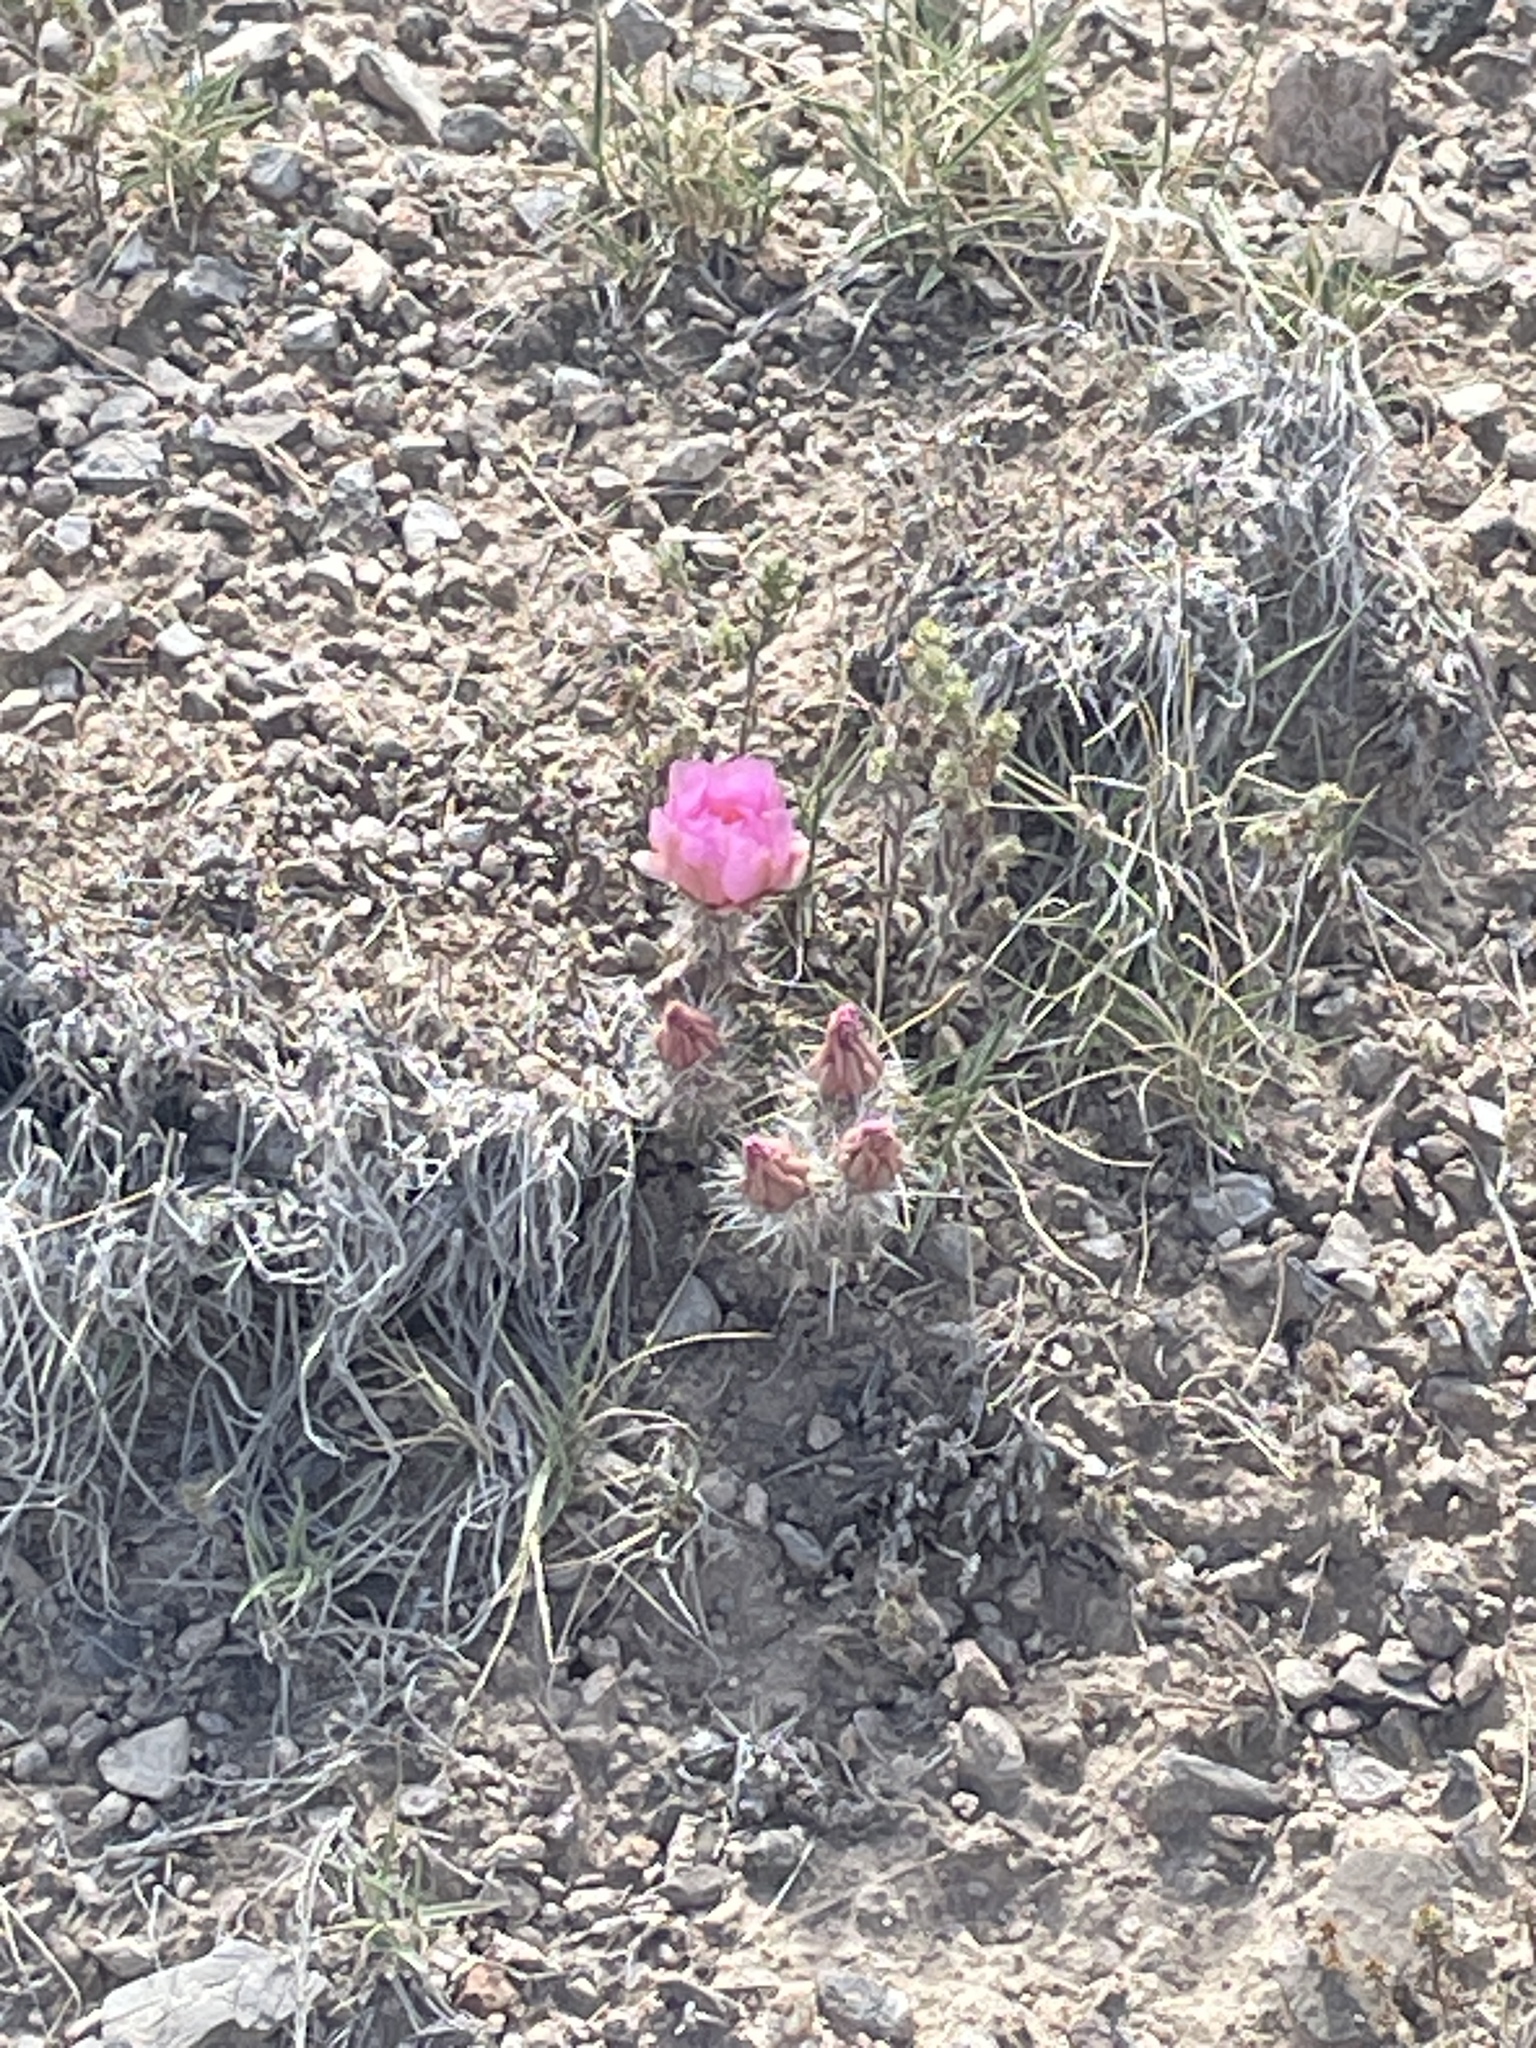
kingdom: Plantae
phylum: Tracheophyta
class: Magnoliopsida
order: Caryophyllales
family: Cactaceae
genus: Micropuntia
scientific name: Micropuntia pulchella
